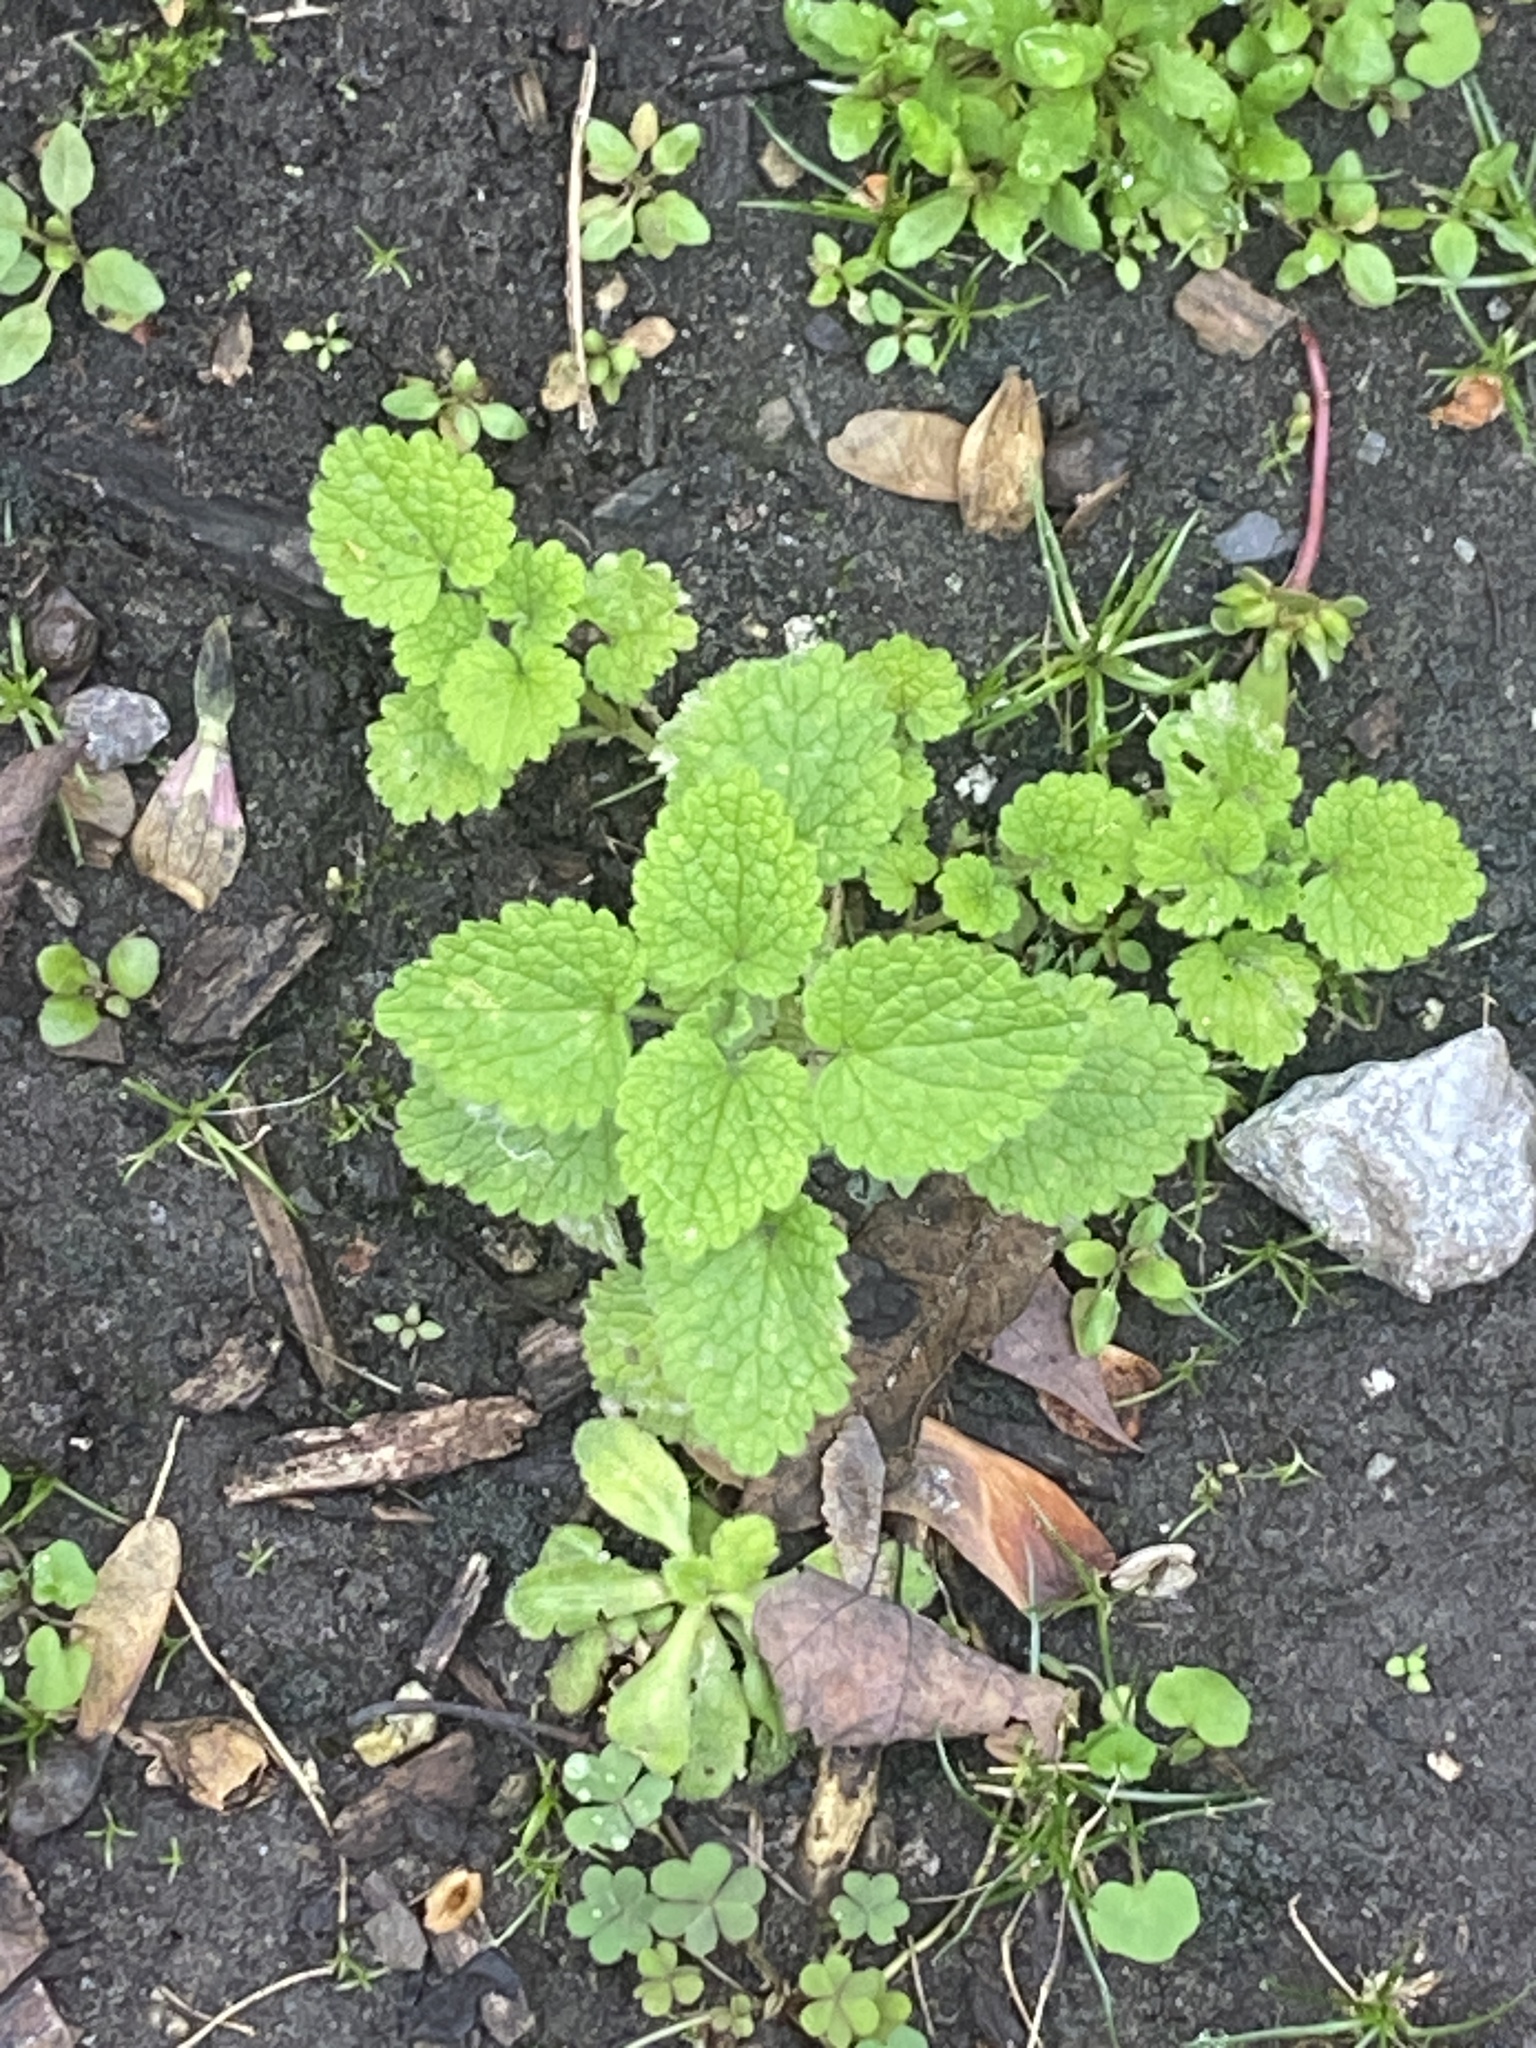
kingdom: Plantae
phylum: Tracheophyta
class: Magnoliopsida
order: Lamiales
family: Lamiaceae
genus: Lamium
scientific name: Lamium purpureum
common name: Red dead-nettle
